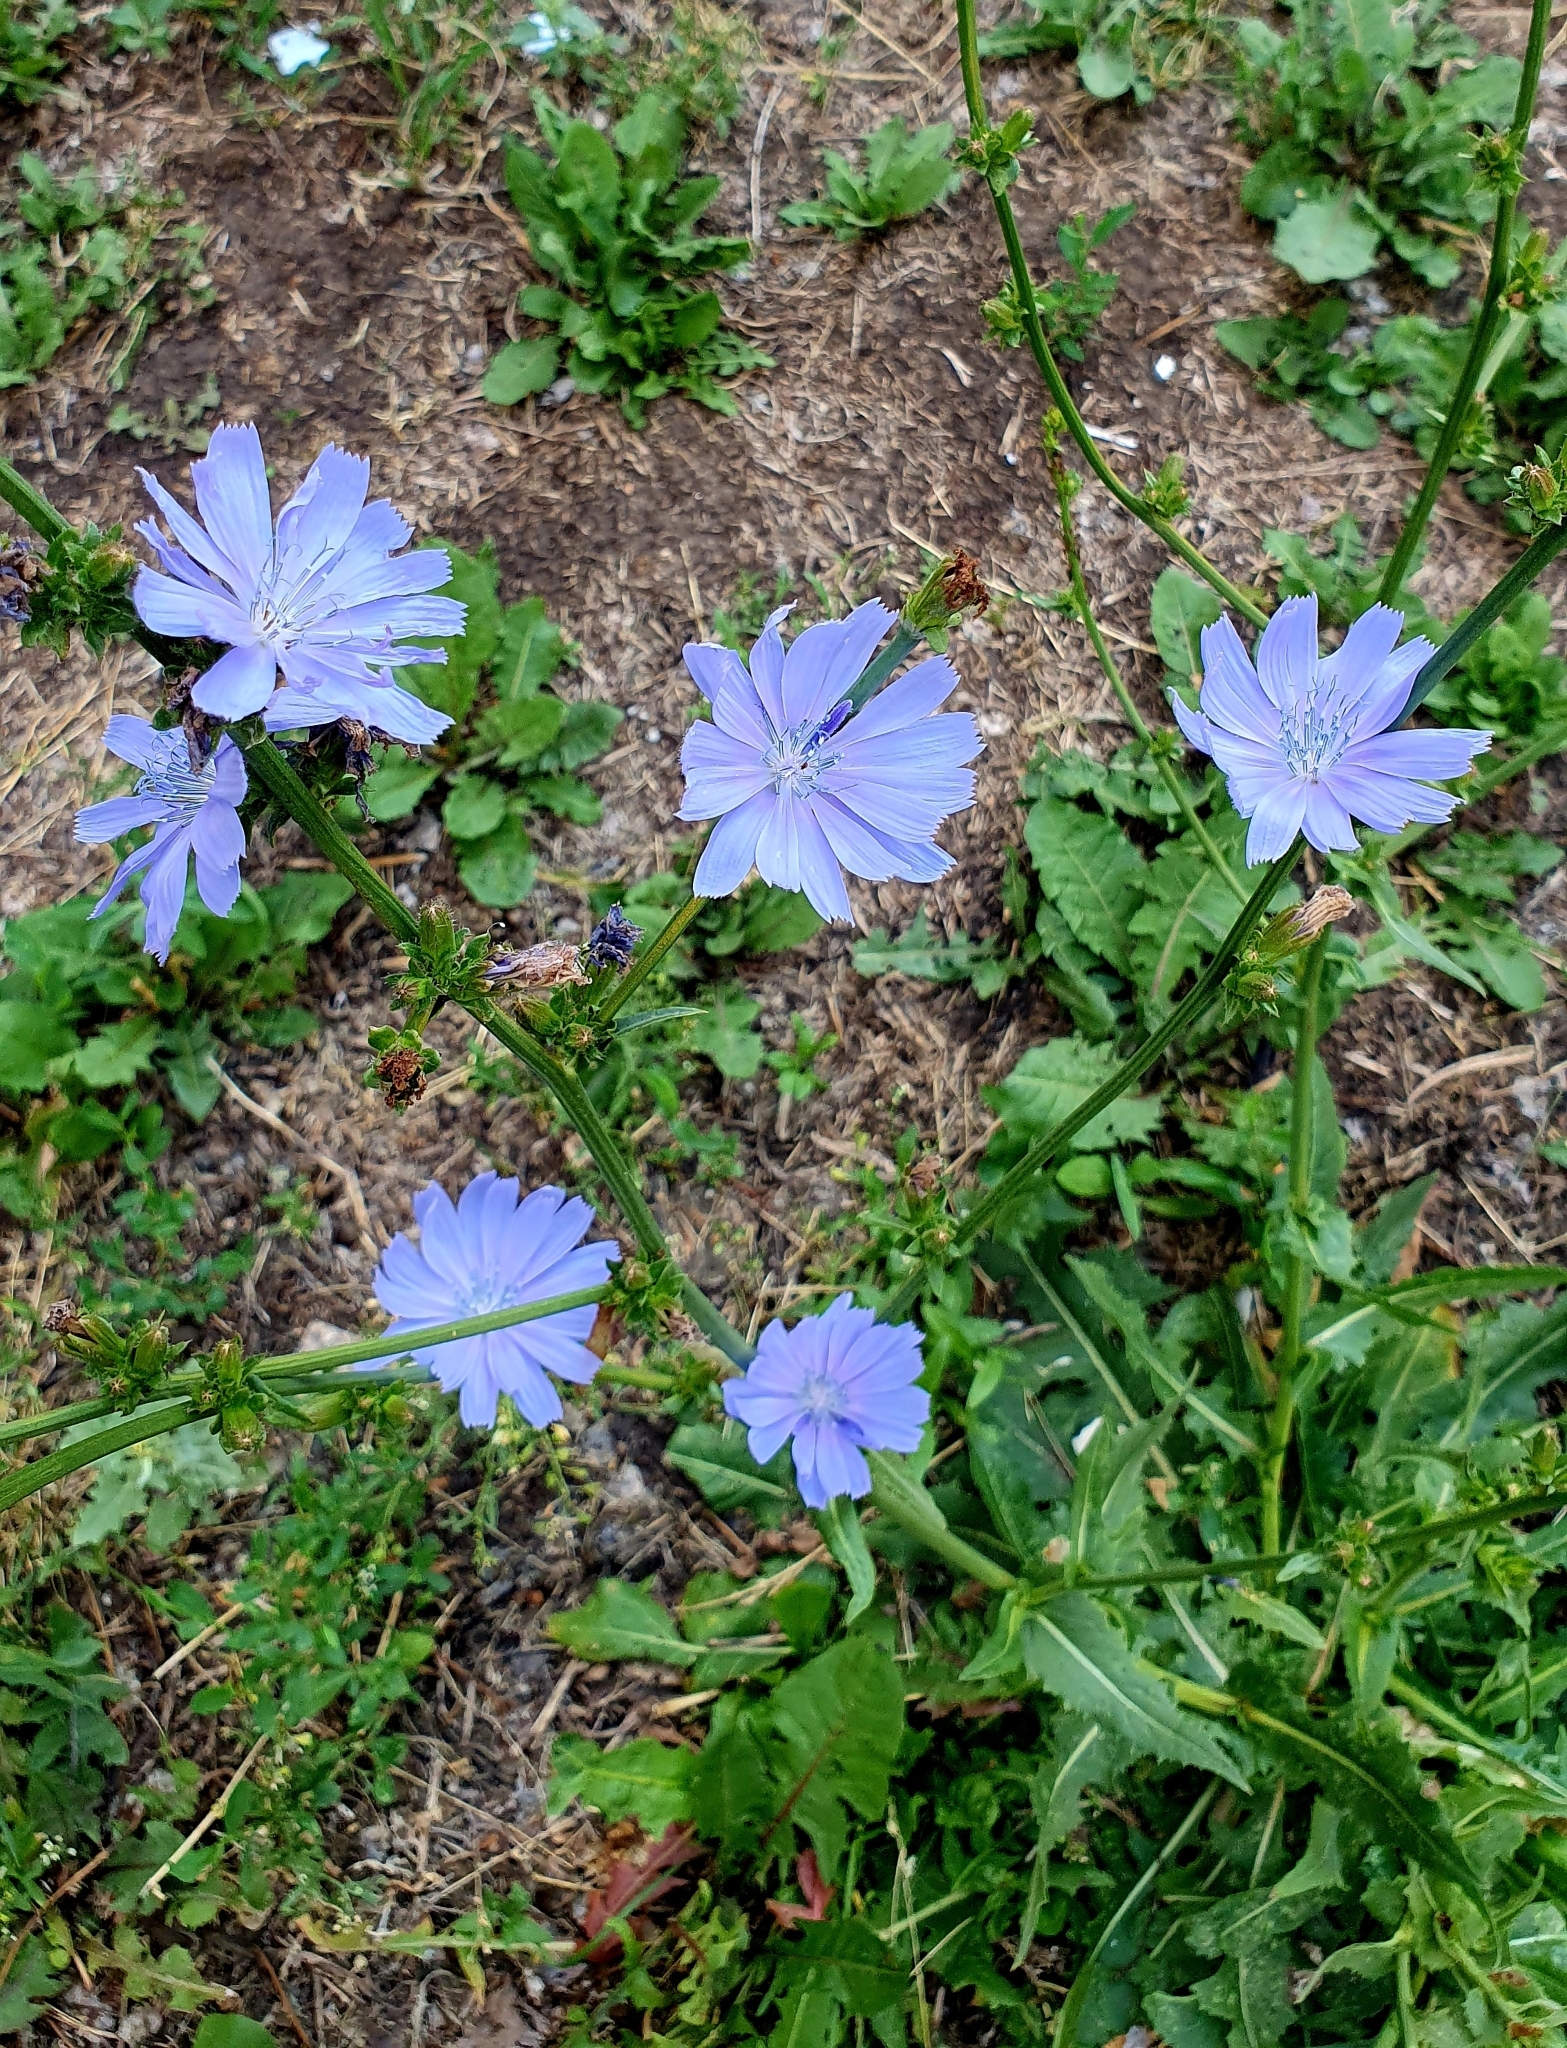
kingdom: Plantae
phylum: Tracheophyta
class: Magnoliopsida
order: Asterales
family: Asteraceae
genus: Cichorium
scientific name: Cichorium intybus
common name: Chicory
